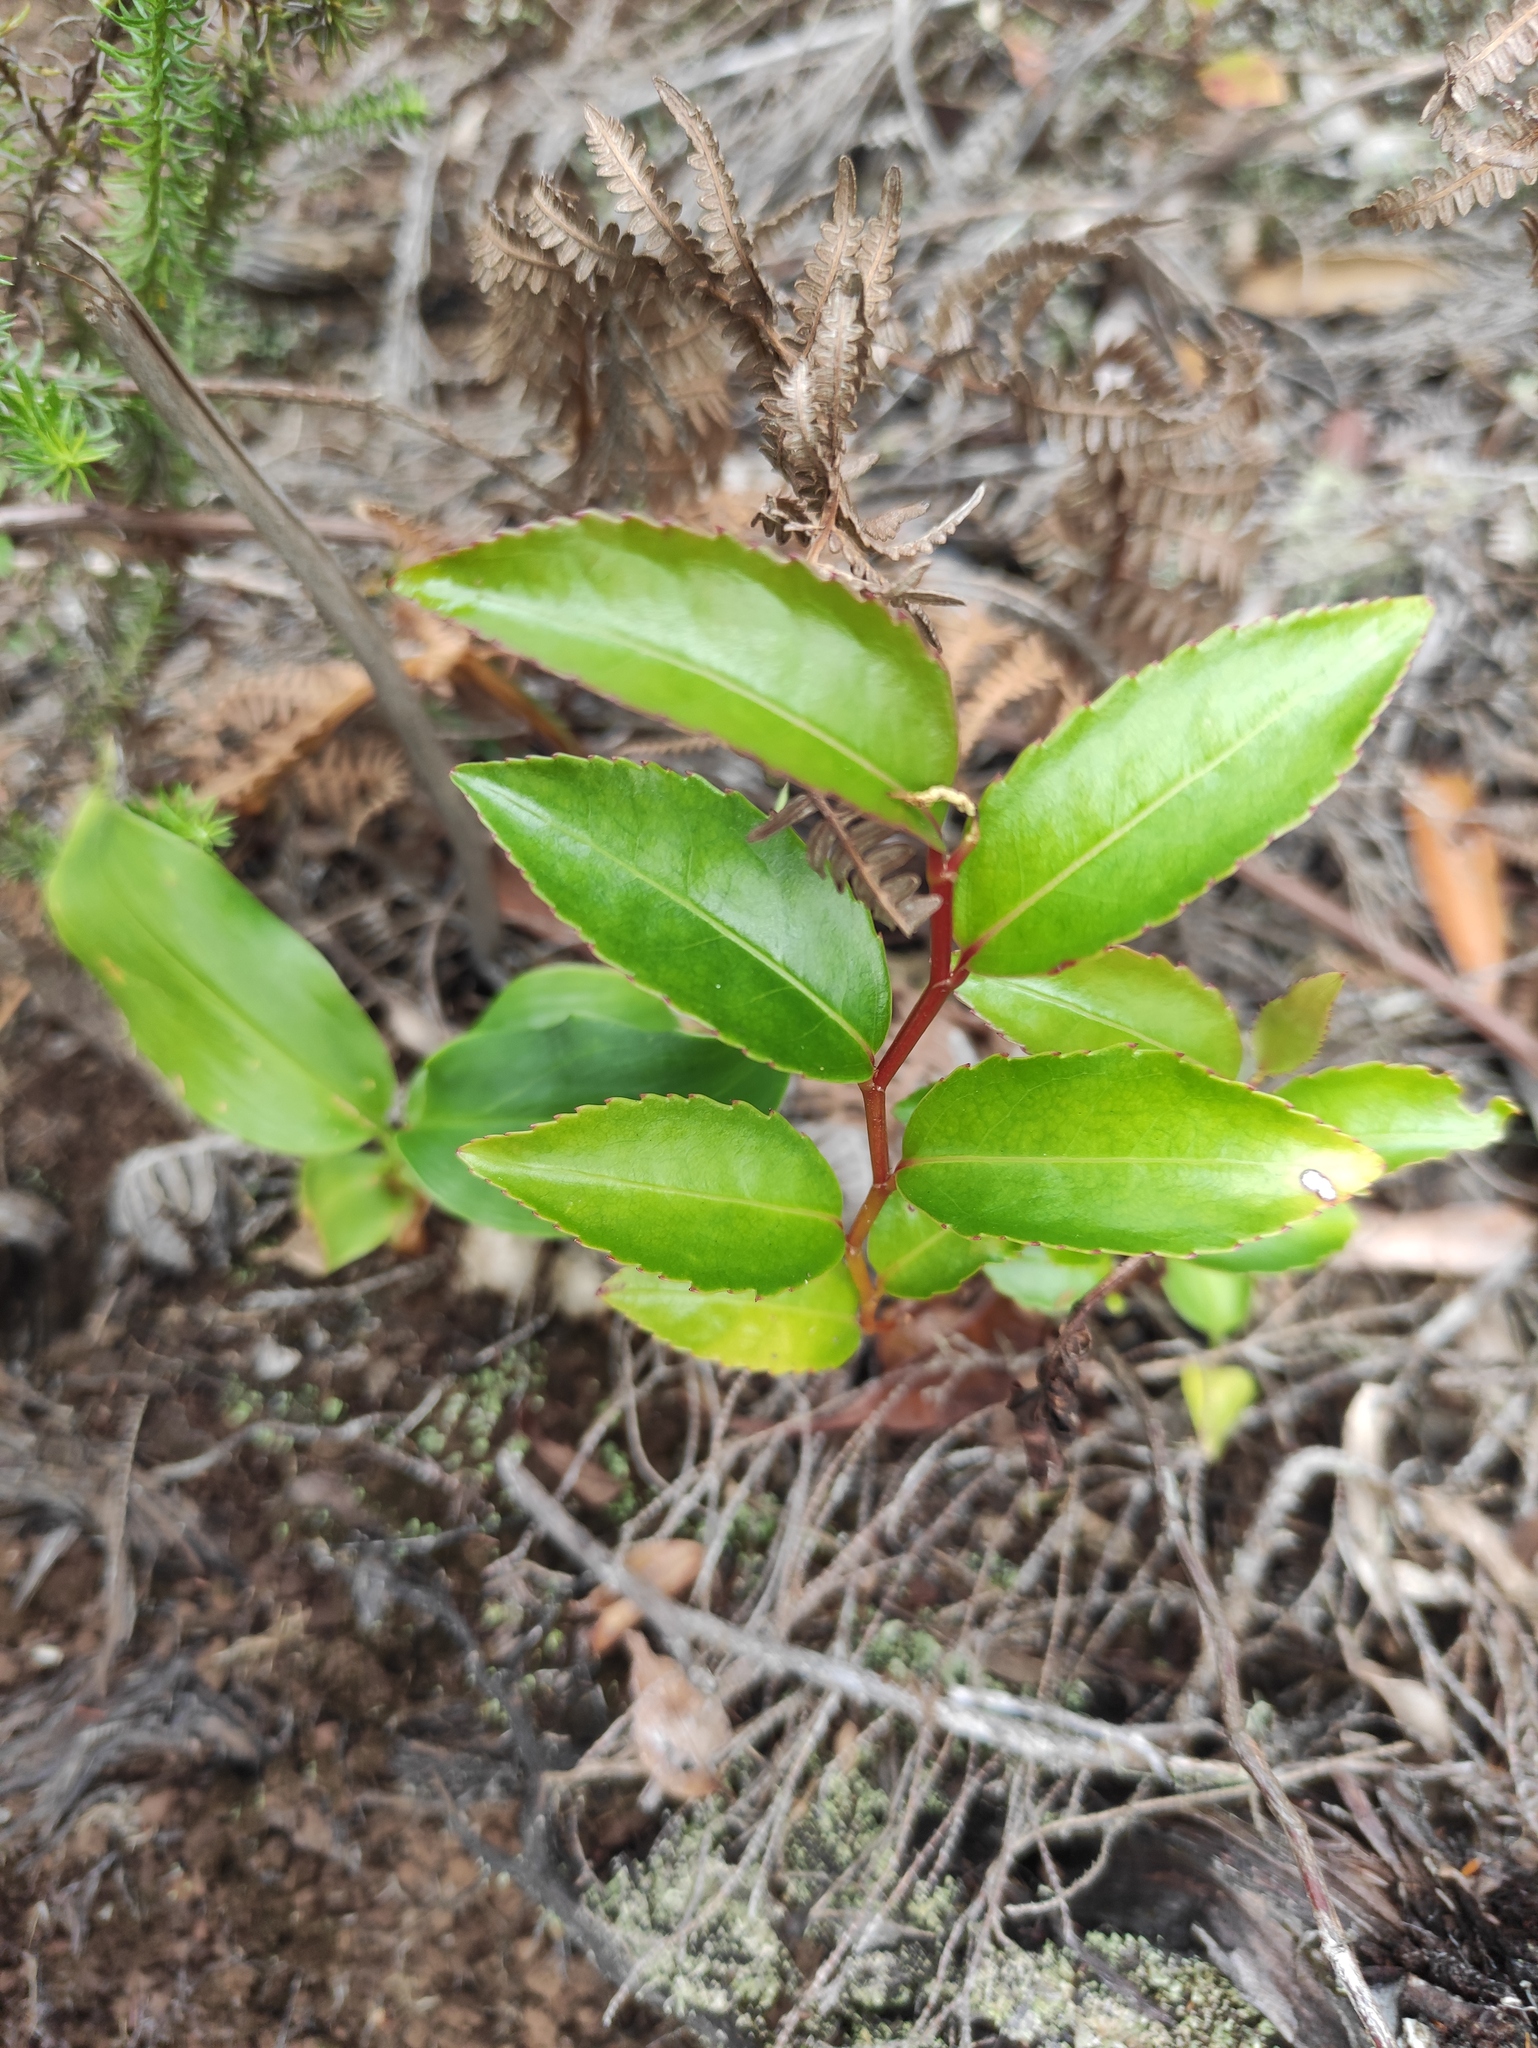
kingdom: Plantae
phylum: Tracheophyta
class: Magnoliopsida
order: Crossosomatales
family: Aphloiaceae
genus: Aphloia
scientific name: Aphloia theiformis
